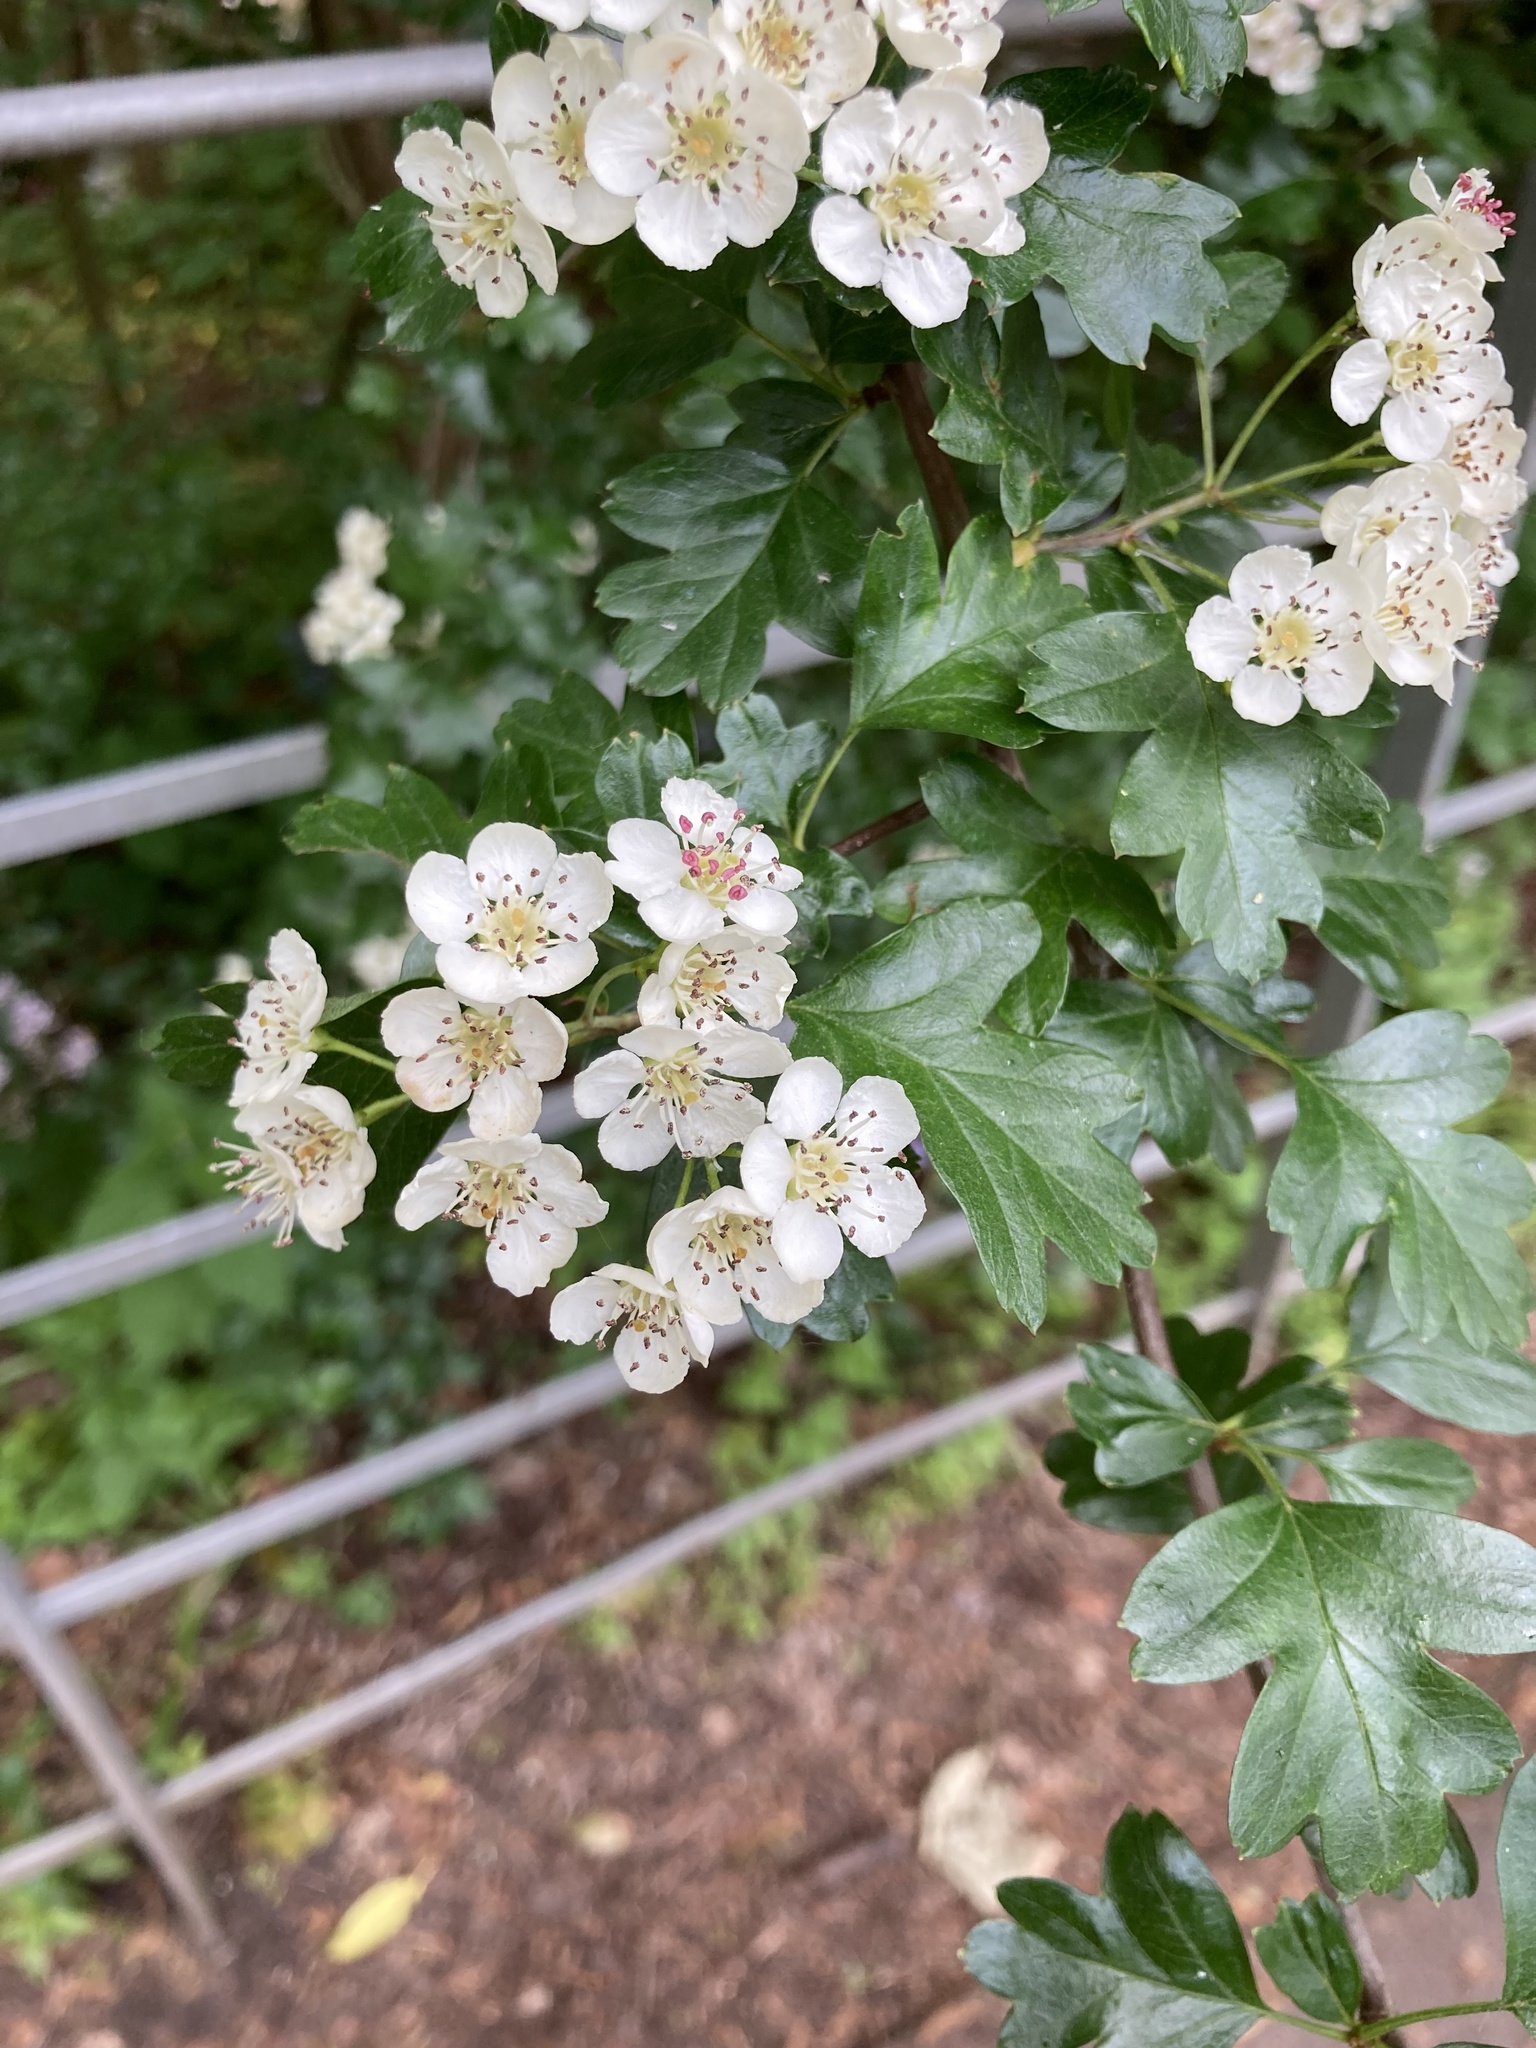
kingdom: Plantae
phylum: Tracheophyta
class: Magnoliopsida
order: Rosales
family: Rosaceae
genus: Crataegus
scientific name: Crataegus monogyna
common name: Hawthorn
